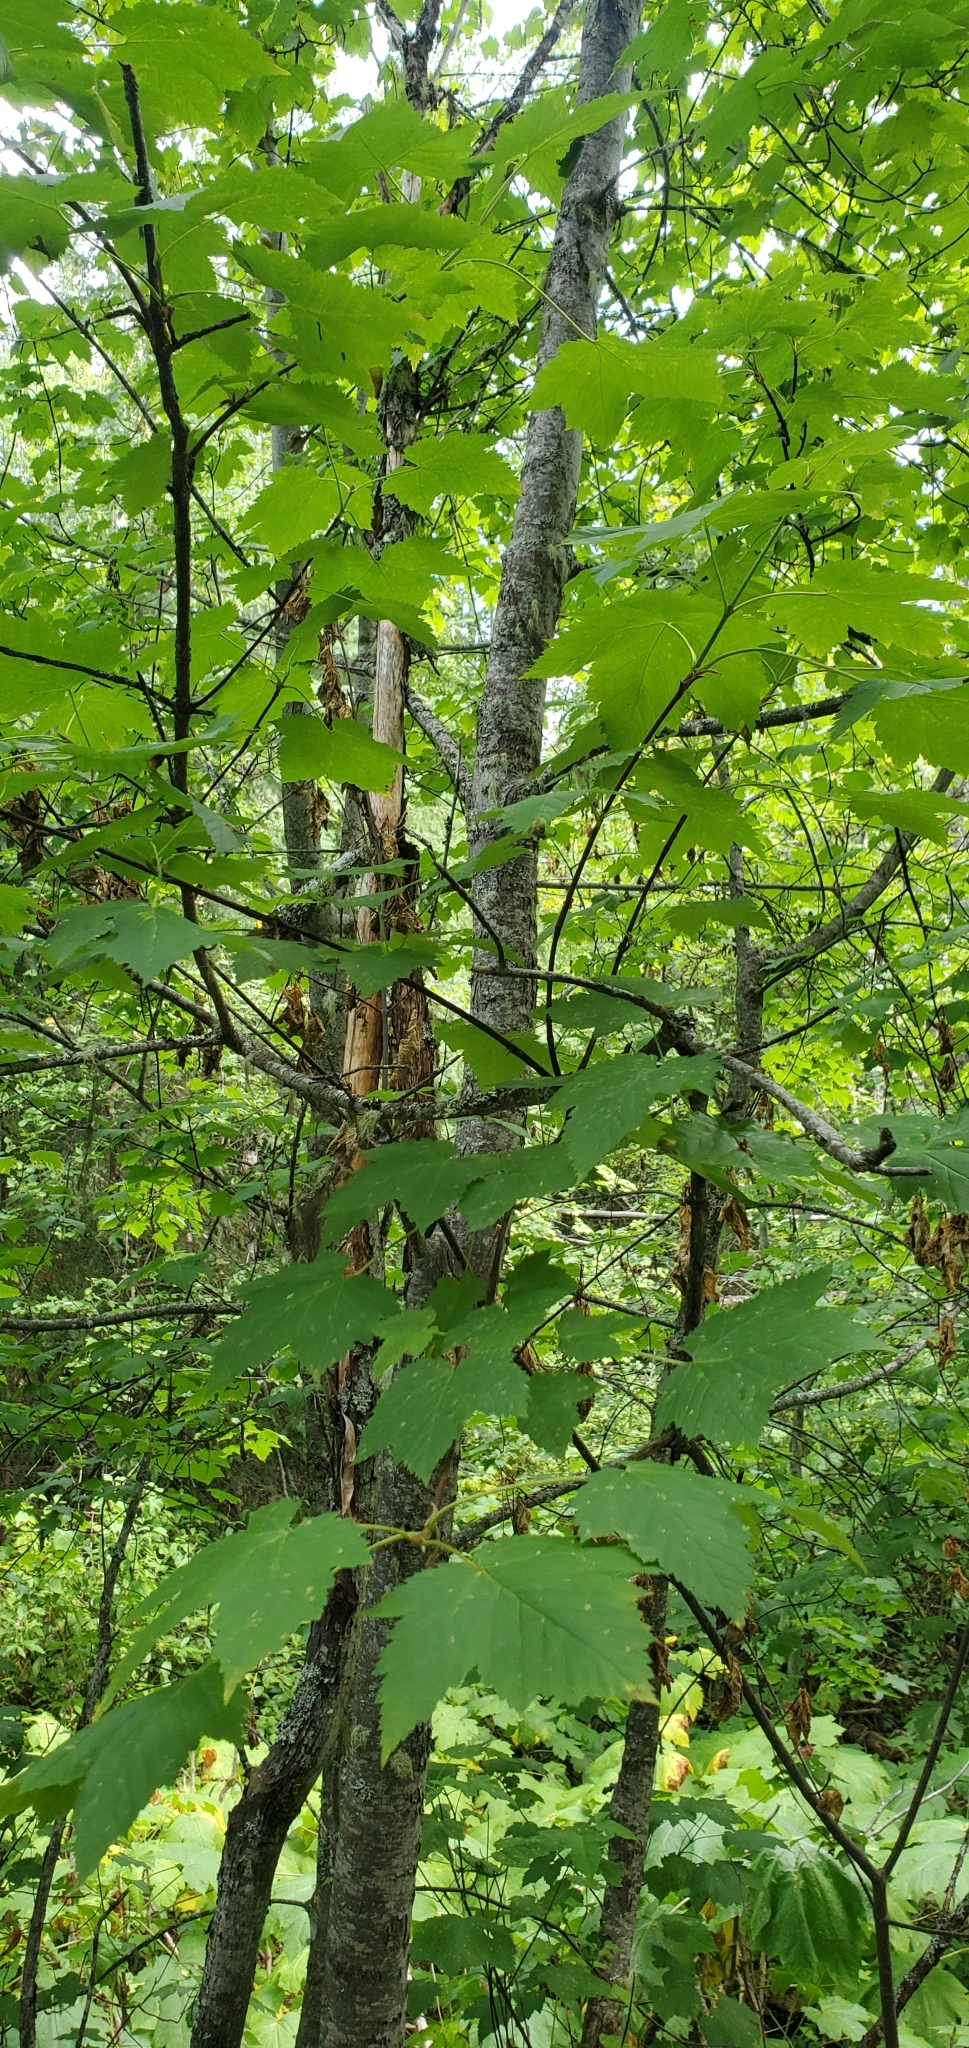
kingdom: Plantae
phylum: Tracheophyta
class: Magnoliopsida
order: Sapindales
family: Sapindaceae
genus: Acer
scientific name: Acer glabrum
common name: Rocky mountain maple
